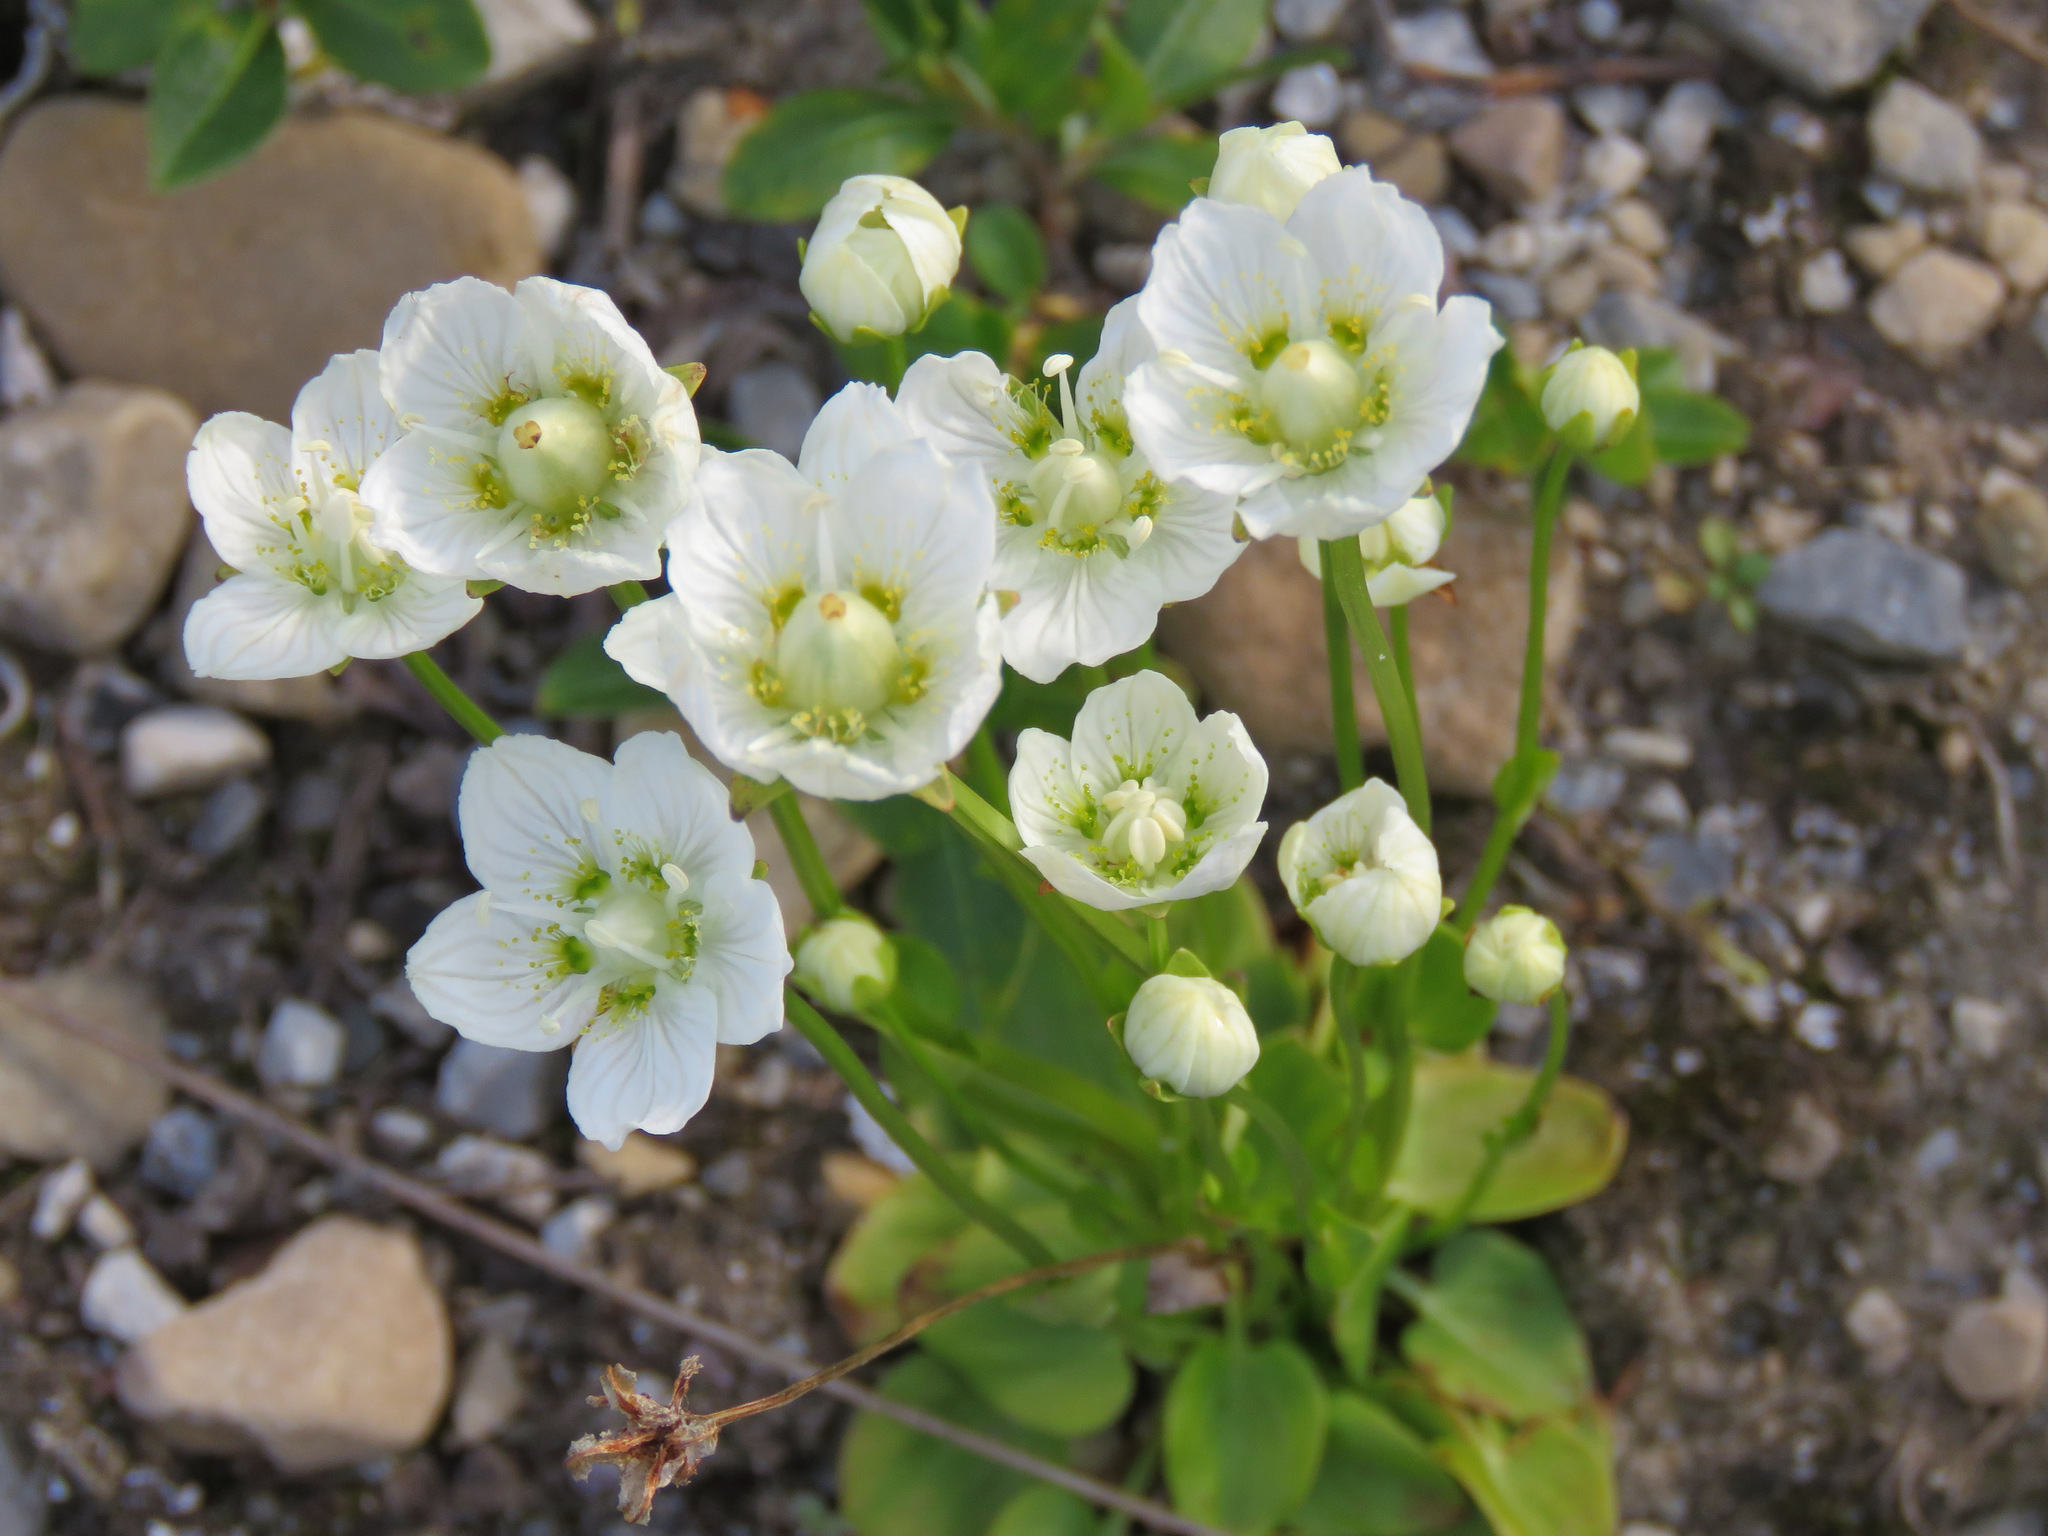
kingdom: Plantae
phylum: Tracheophyta
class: Magnoliopsida
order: Celastrales
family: Parnassiaceae
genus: Parnassia
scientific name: Parnassia palustris
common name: Grass-of-parnassus
